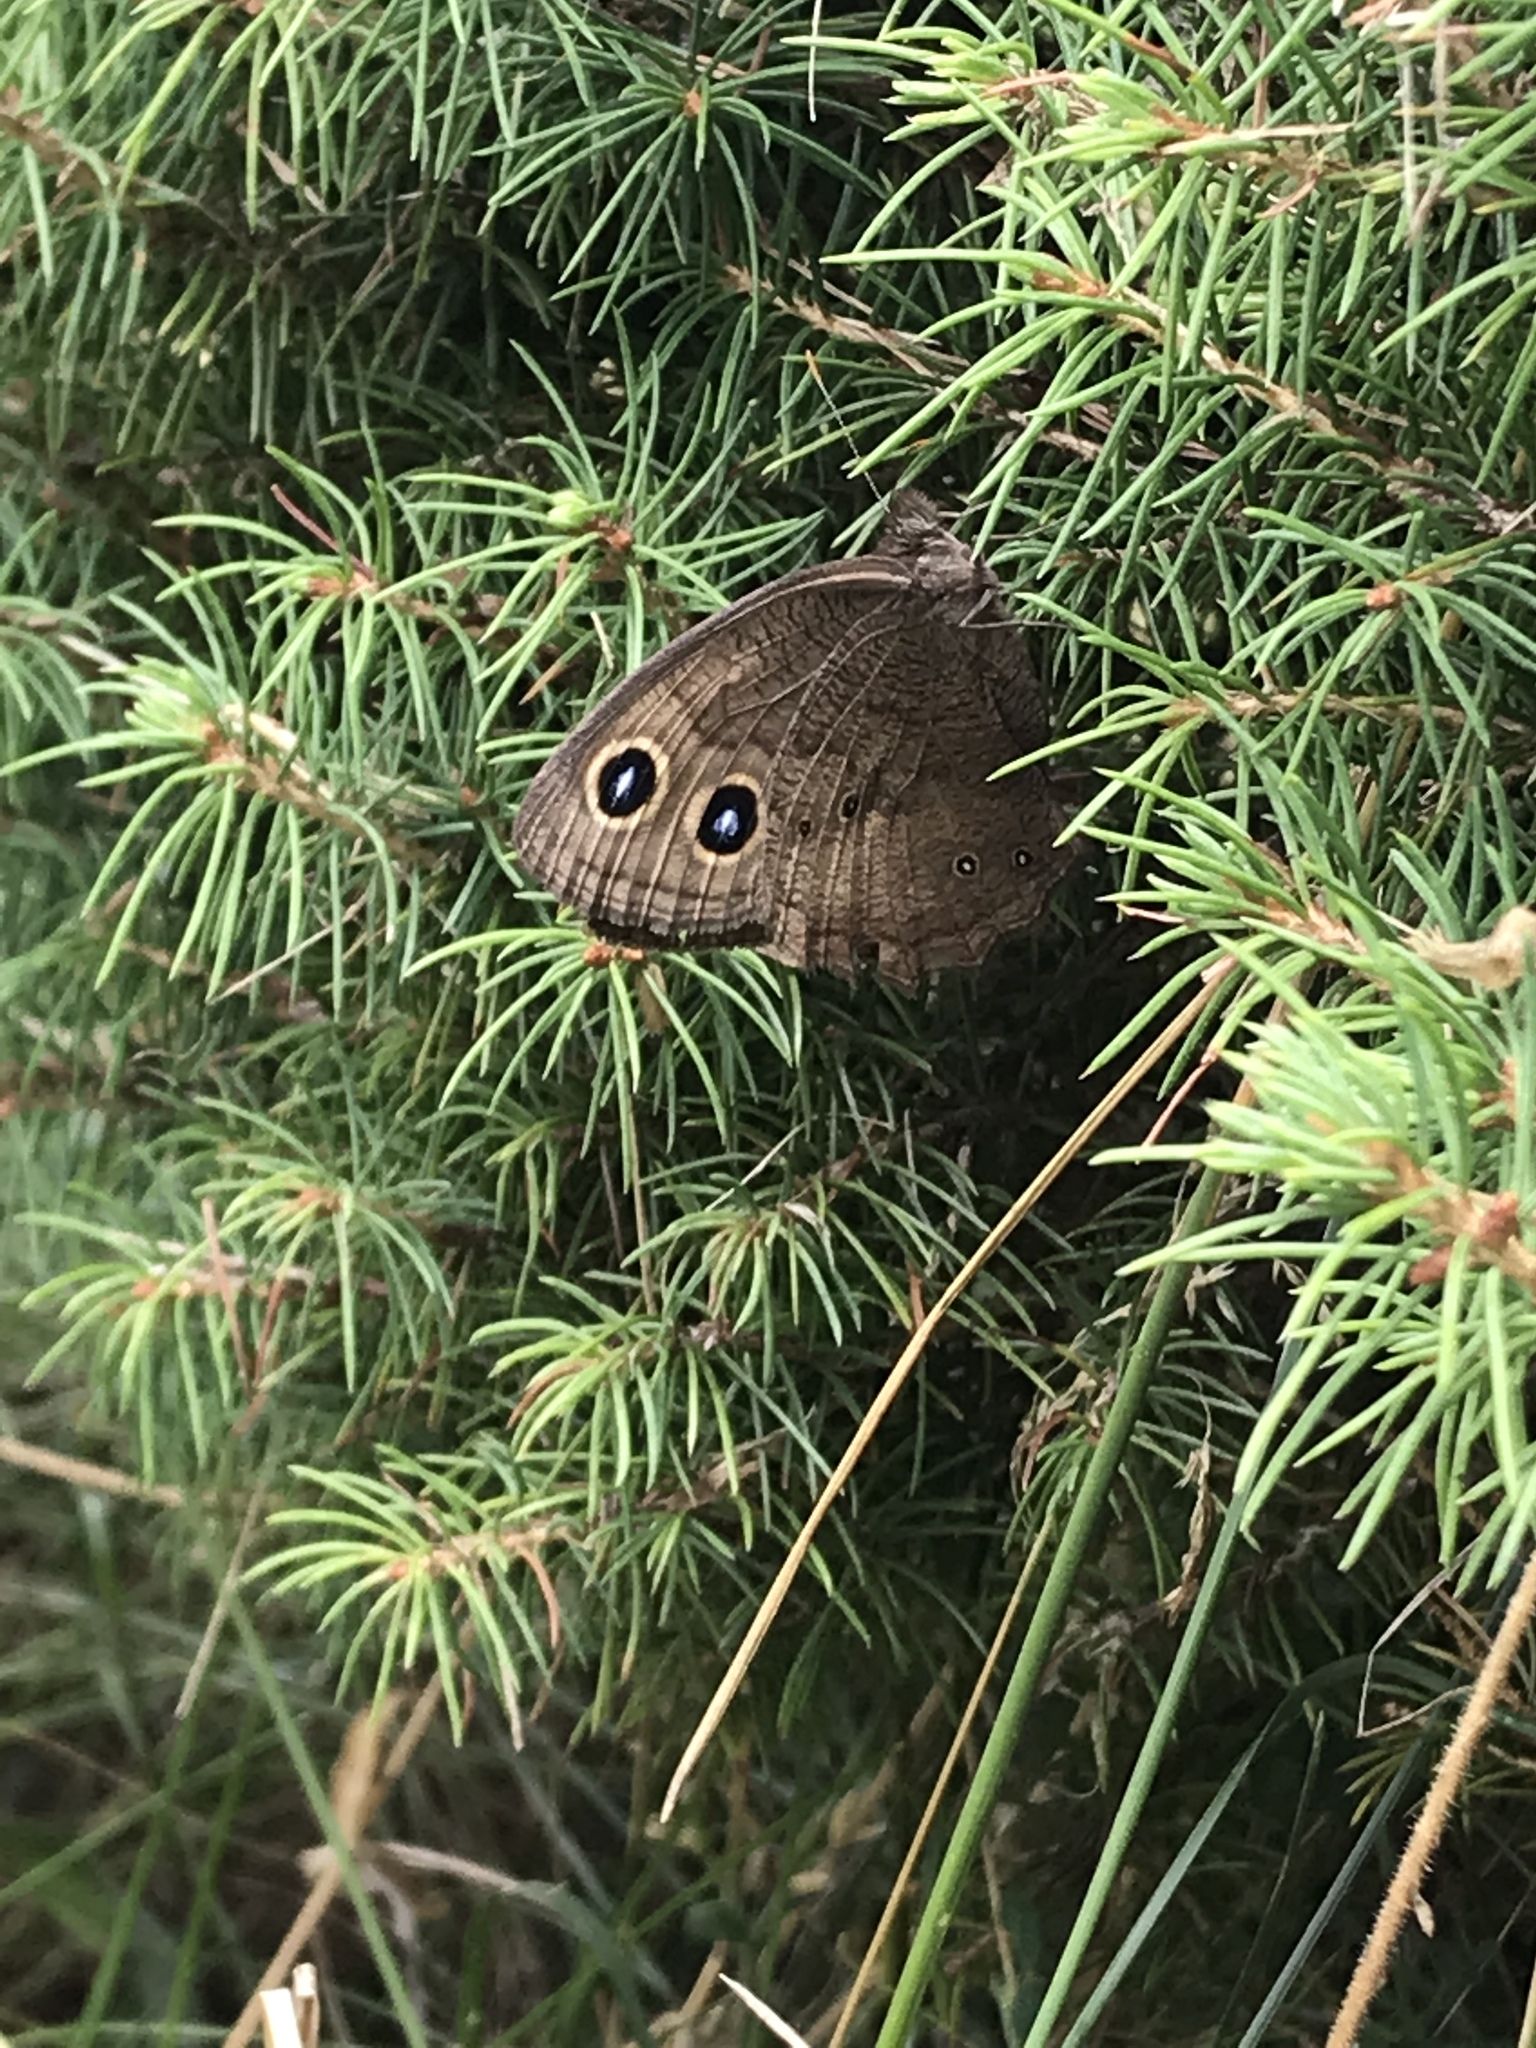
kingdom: Animalia
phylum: Arthropoda
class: Insecta
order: Lepidoptera
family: Nymphalidae
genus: Cercyonis
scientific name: Cercyonis pegala
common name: Common wood-nymph
